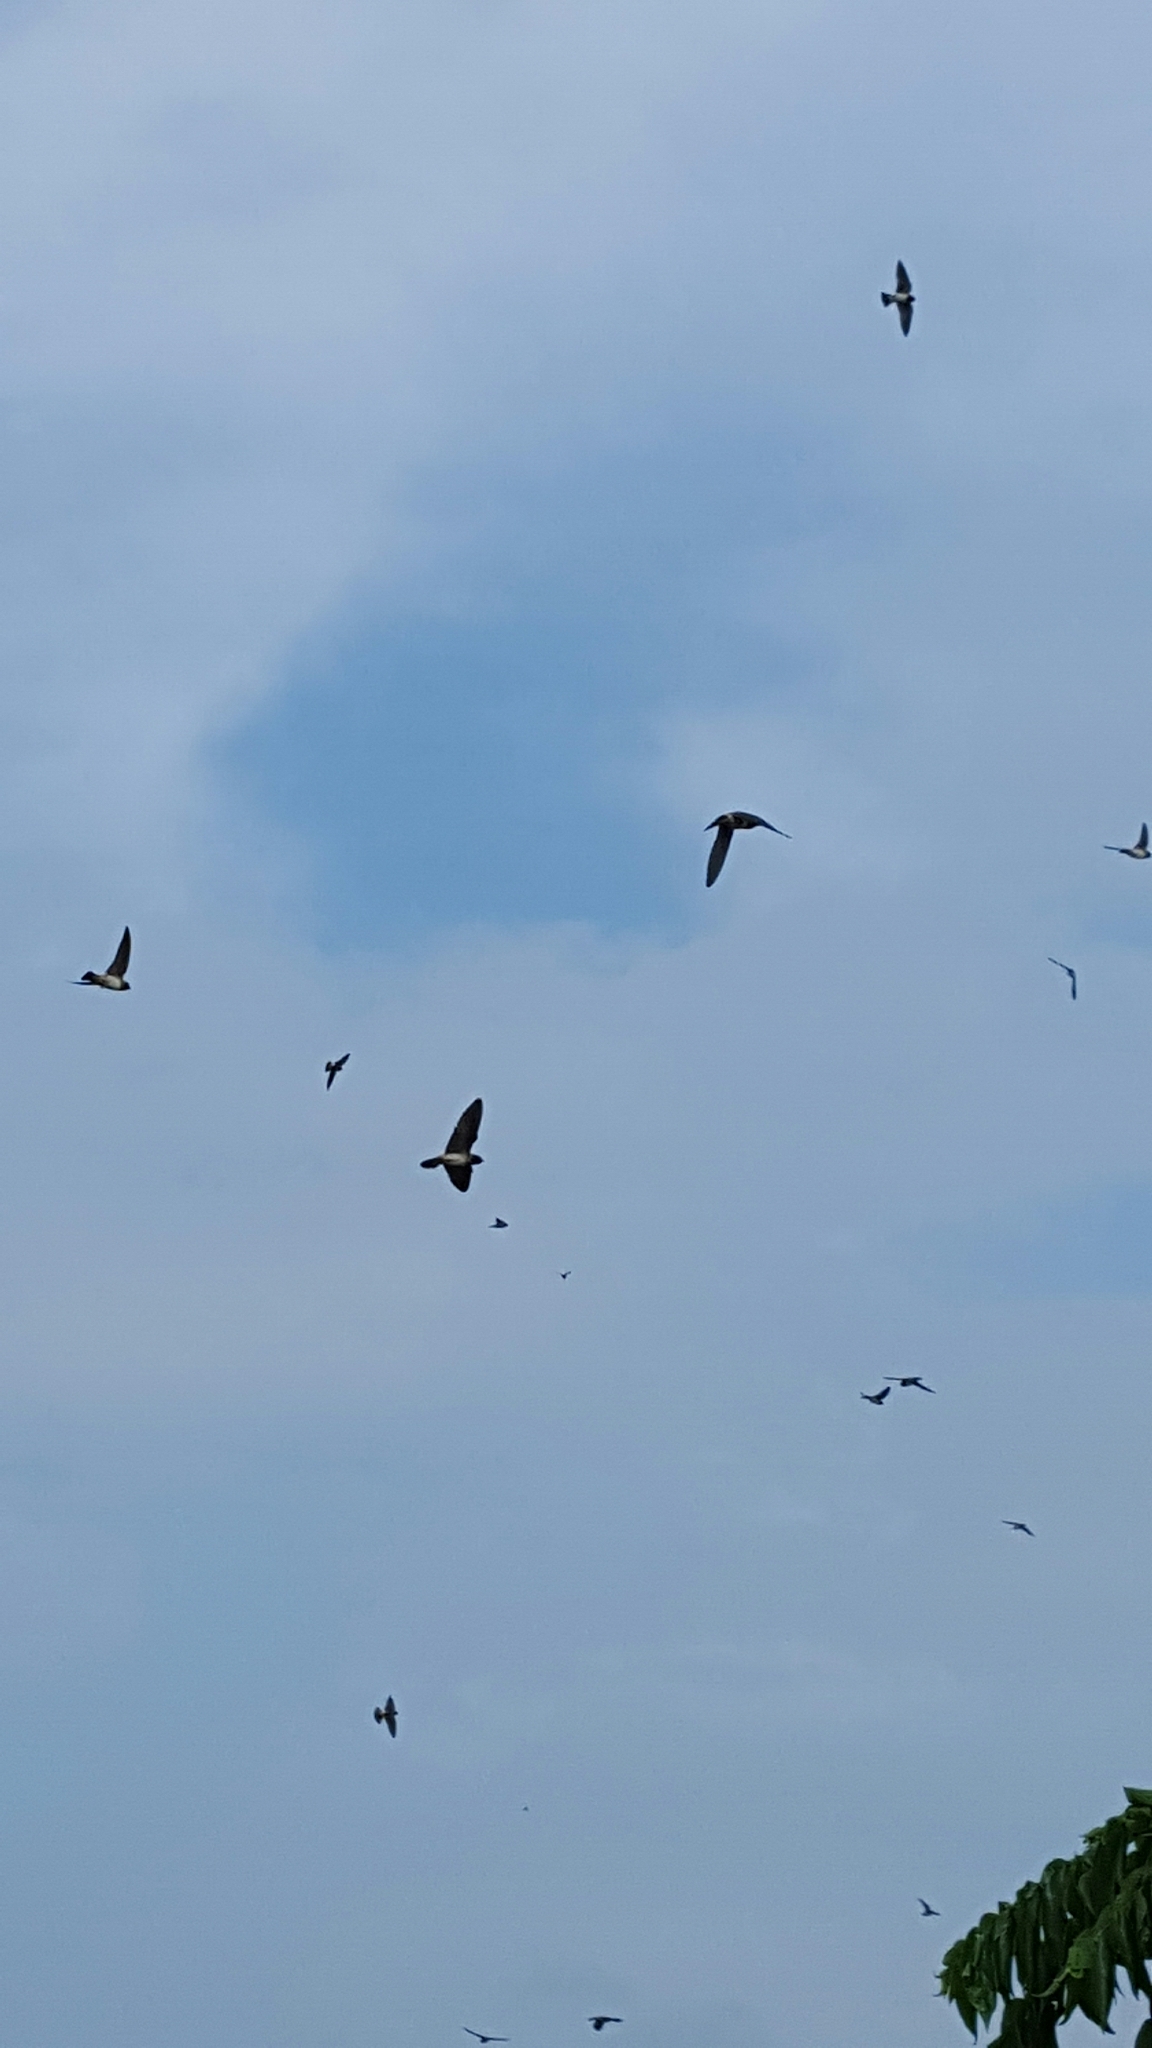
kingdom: Animalia
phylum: Chordata
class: Aves
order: Passeriformes
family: Hirundinidae
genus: Petrochelidon
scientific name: Petrochelidon pyrrhonota
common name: American cliff swallow
